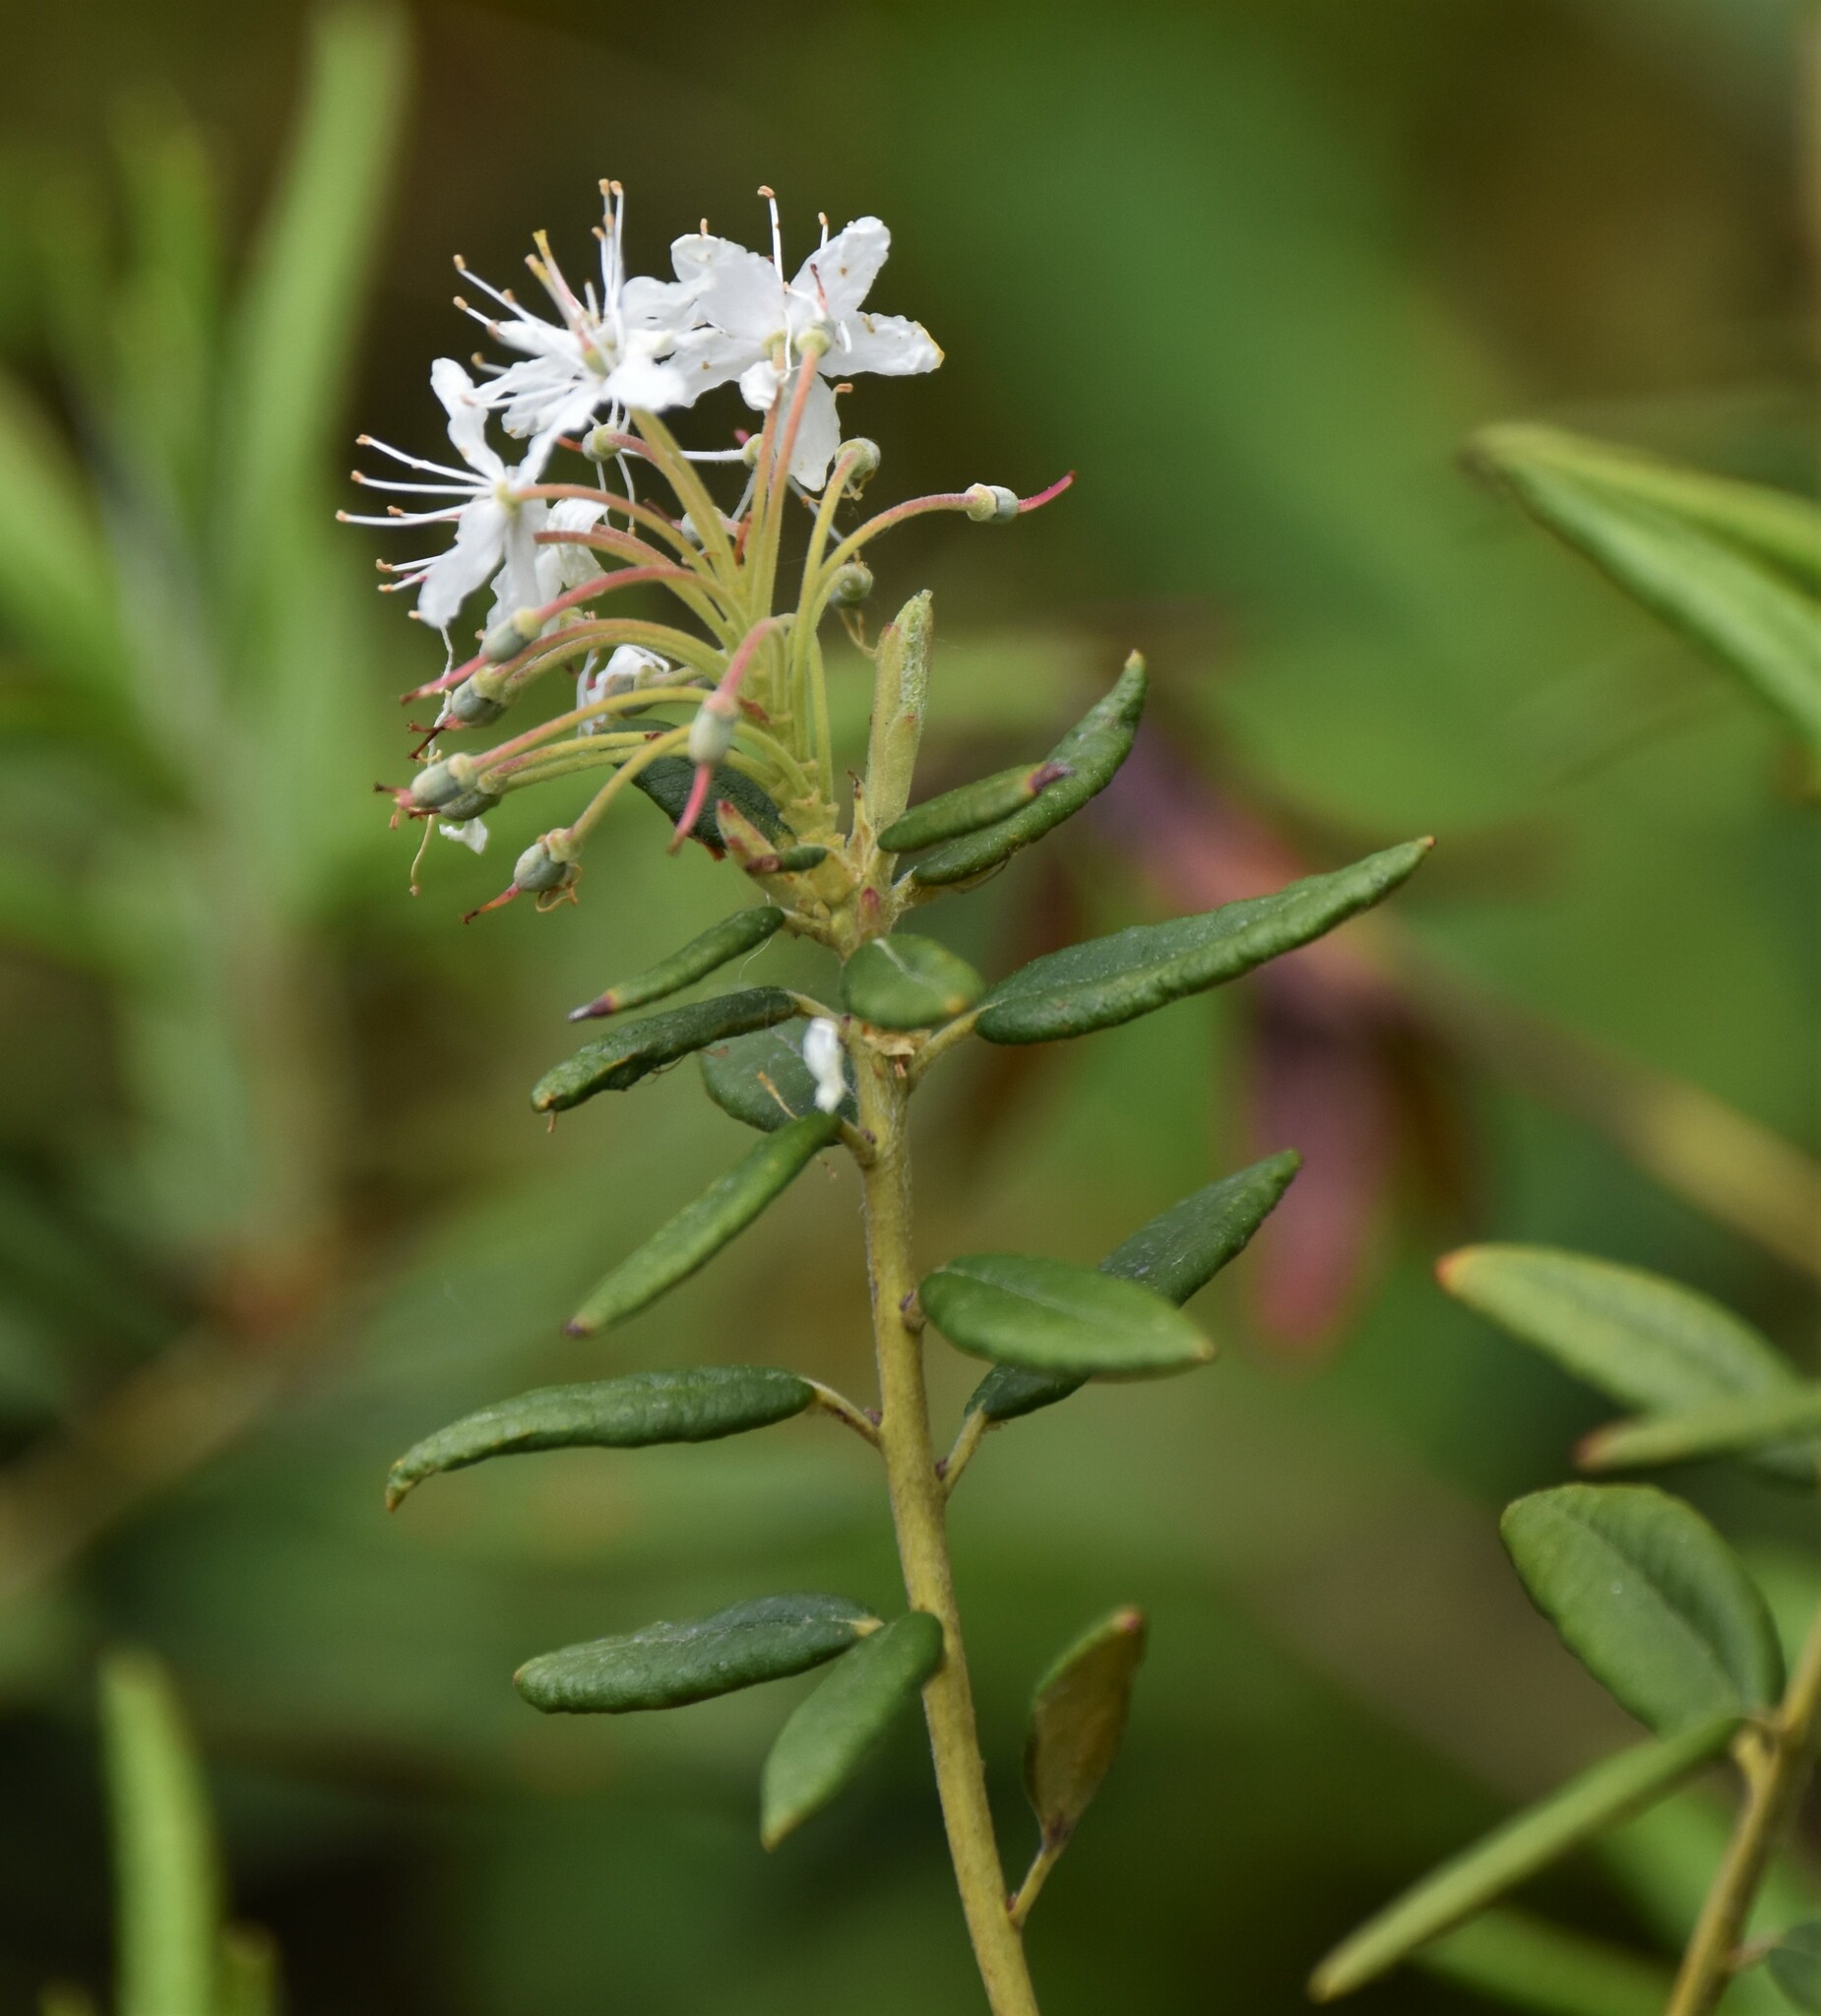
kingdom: Plantae
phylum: Tracheophyta
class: Magnoliopsida
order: Ericales
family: Ericaceae
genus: Rhododendron
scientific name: Rhododendron groenlandicum
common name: Bog labrador tea
